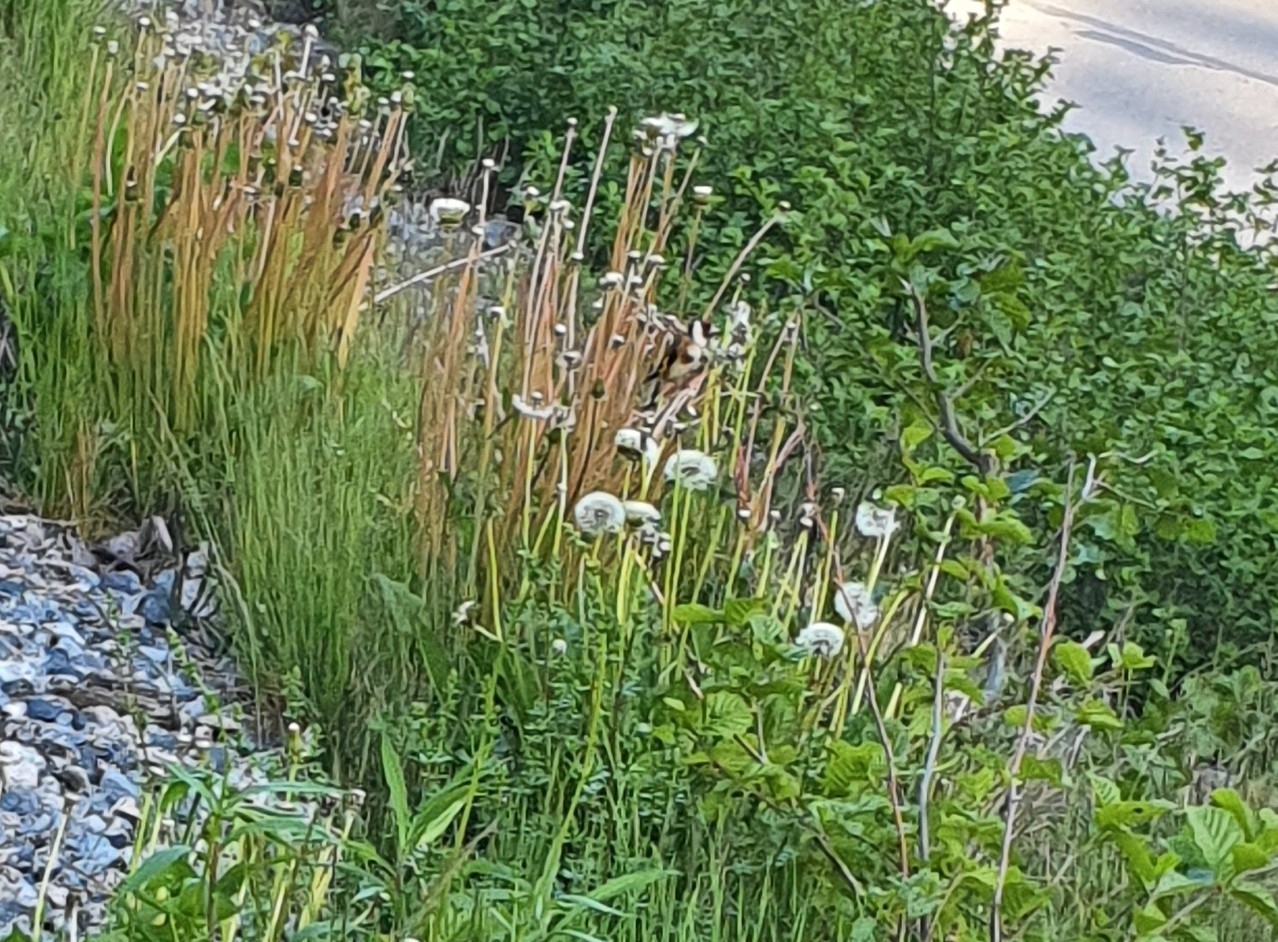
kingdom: Animalia
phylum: Chordata
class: Aves
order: Passeriformes
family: Fringillidae
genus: Carduelis
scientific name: Carduelis carduelis
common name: European goldfinch
